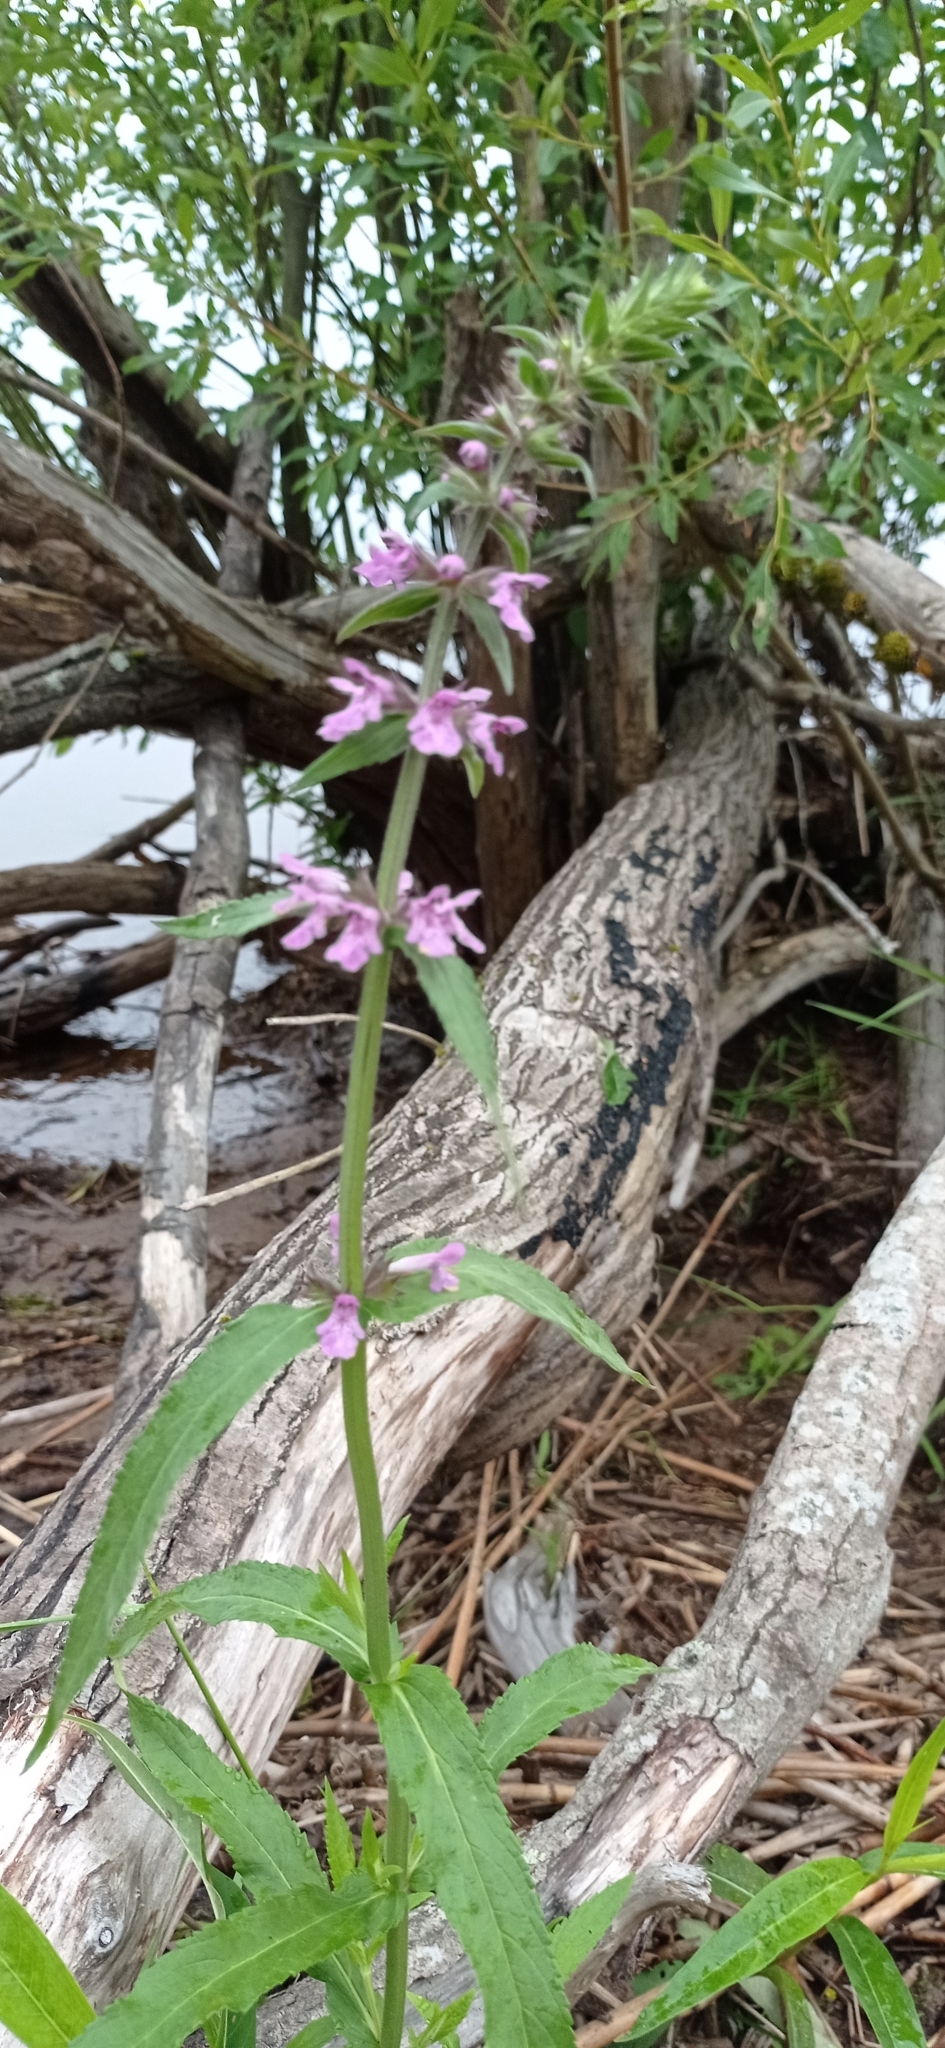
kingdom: Plantae
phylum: Tracheophyta
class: Magnoliopsida
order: Lamiales
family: Lamiaceae
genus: Stachys
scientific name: Stachys palustris
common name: Marsh woundwort
